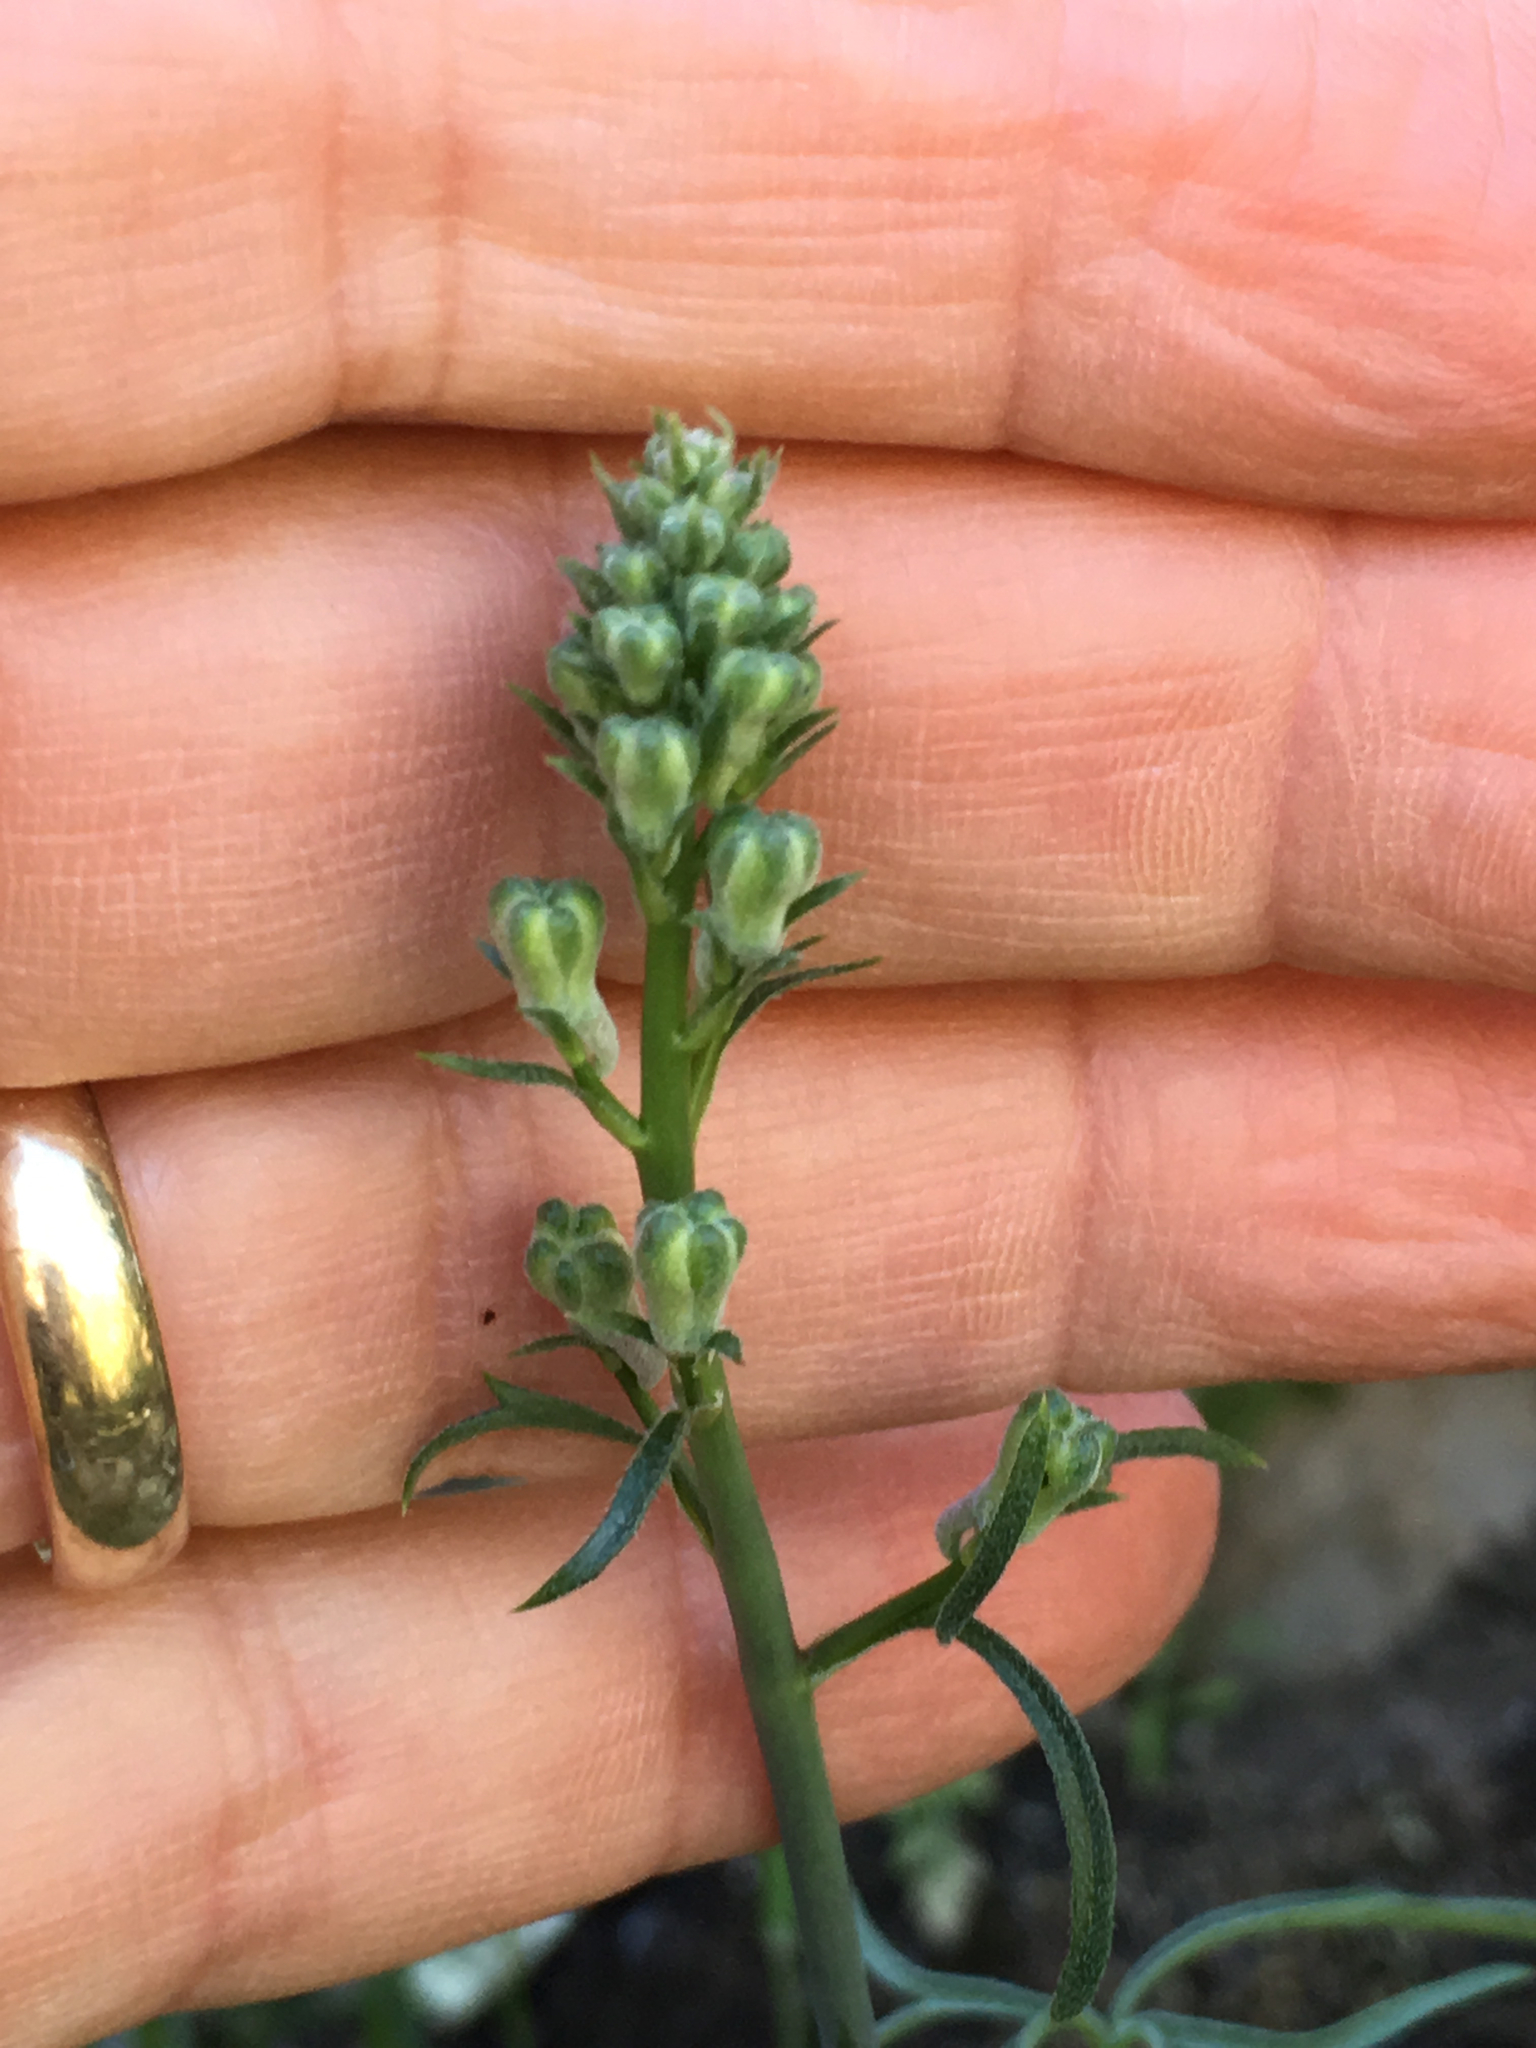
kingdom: Plantae
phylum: Tracheophyta
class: Magnoliopsida
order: Ranunculales
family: Ranunculaceae
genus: Delphinium
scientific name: Delphinium parishii
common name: Apache larkspur
